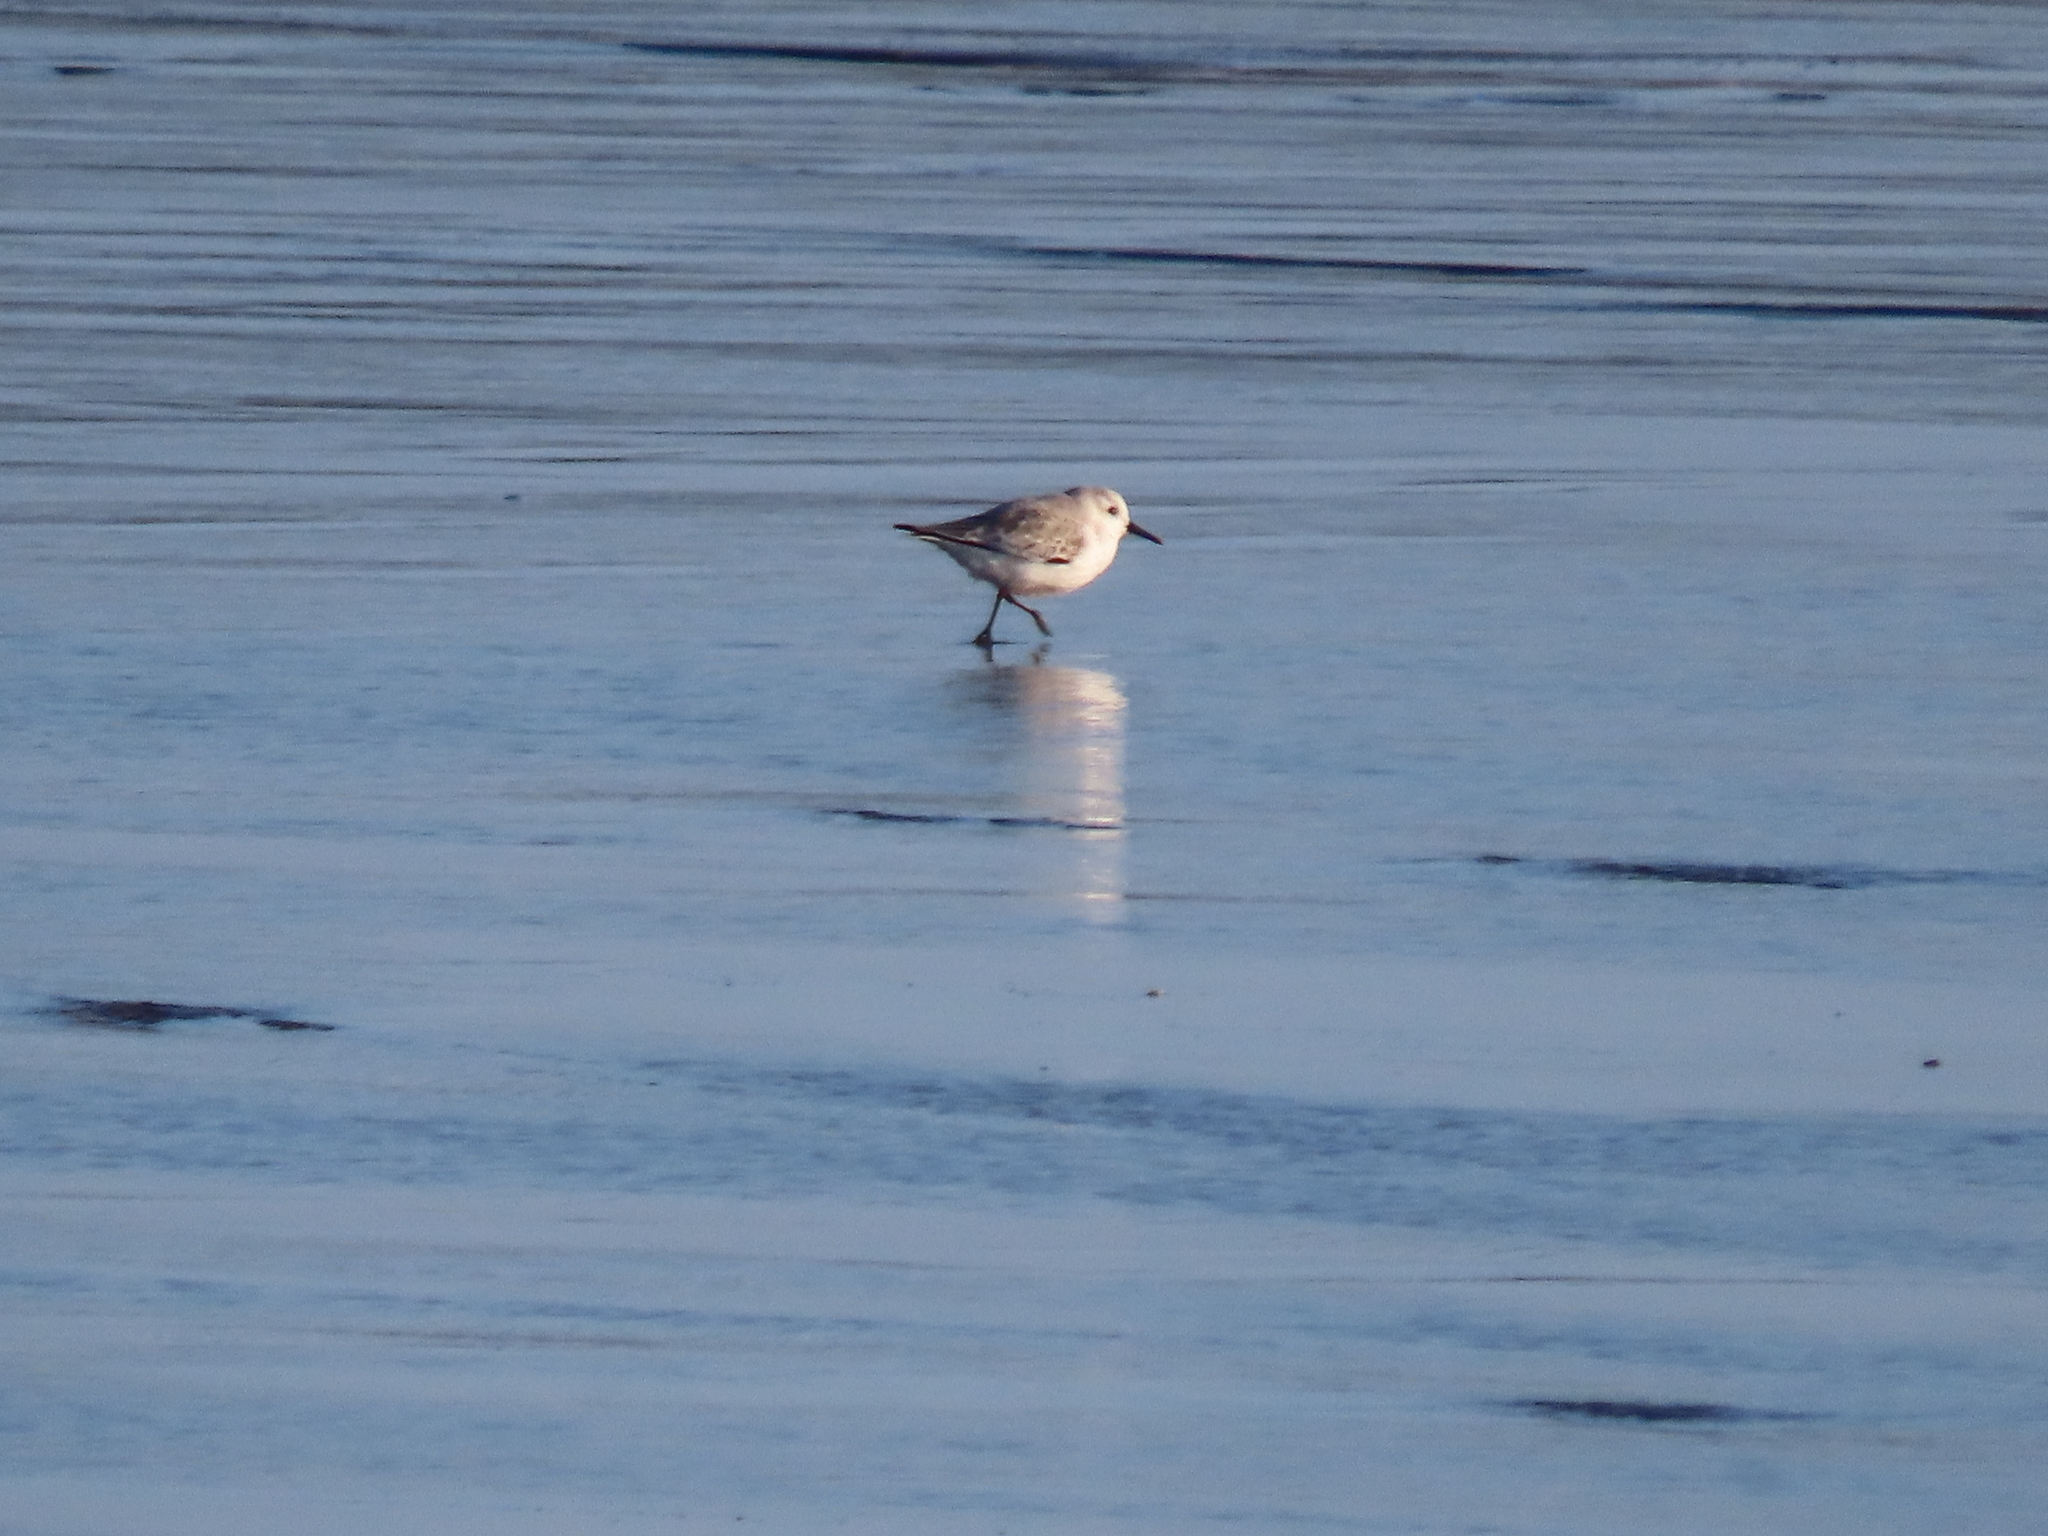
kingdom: Animalia
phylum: Chordata
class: Aves
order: Charadriiformes
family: Scolopacidae
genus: Calidris
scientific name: Calidris alba
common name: Sanderling
